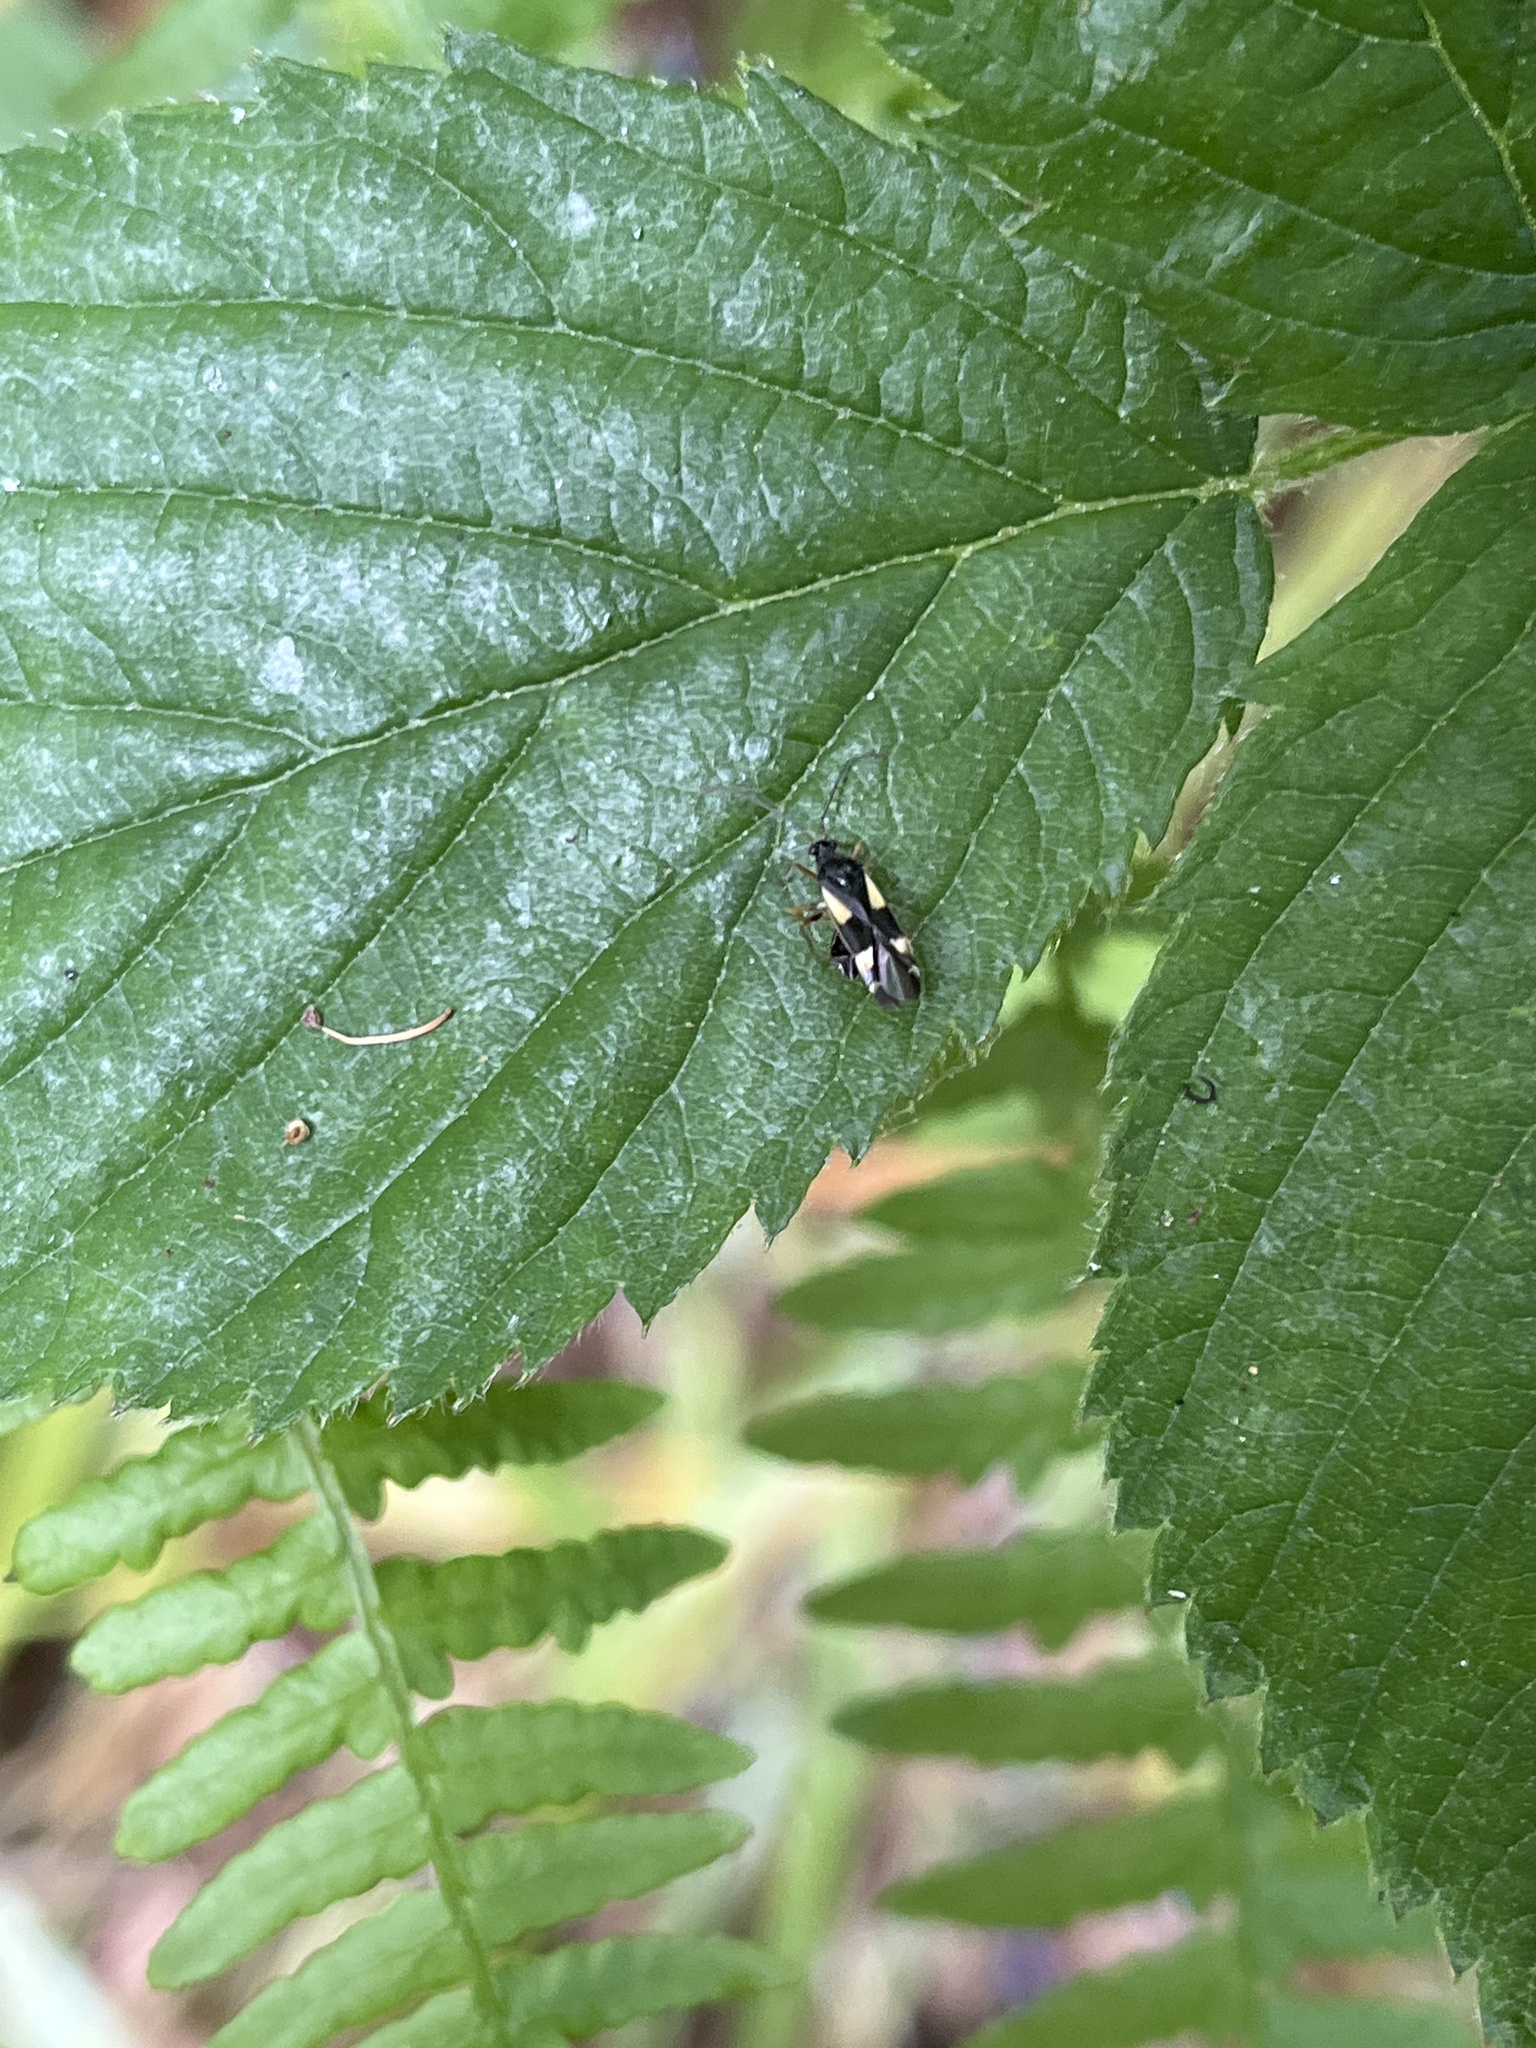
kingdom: Animalia
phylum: Arthropoda
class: Insecta
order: Hemiptera
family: Miridae
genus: Dryophilocoris
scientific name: Dryophilocoris flavoquadrimaculatus
